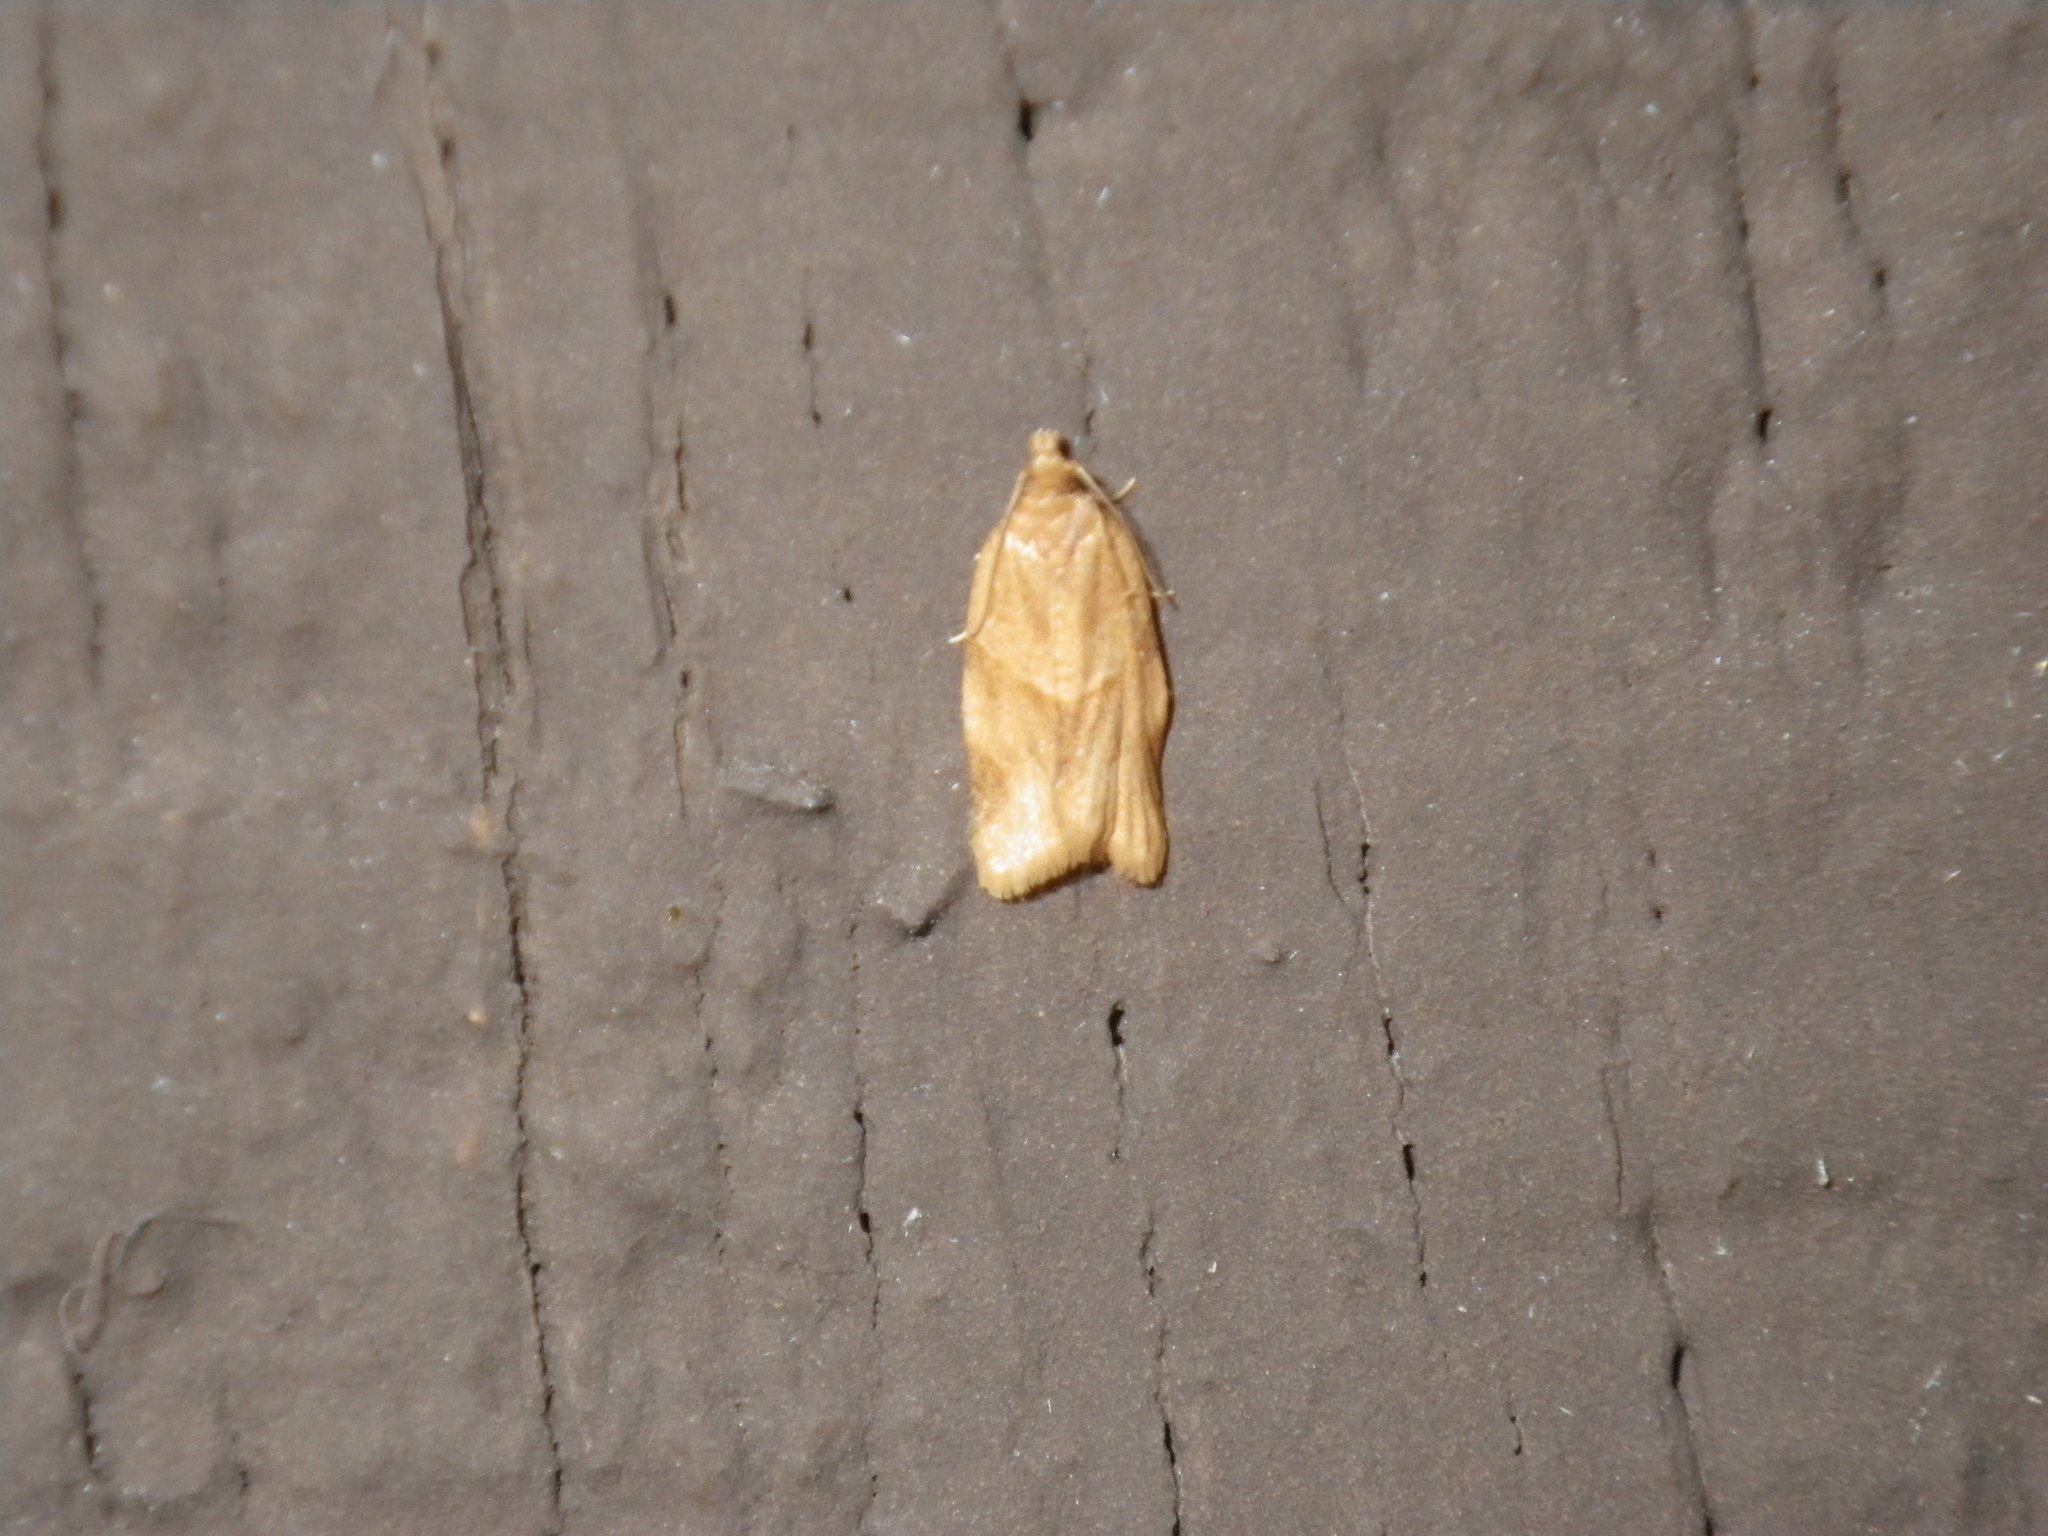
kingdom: Animalia
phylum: Arthropoda
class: Insecta
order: Lepidoptera
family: Tortricidae
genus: Clepsis
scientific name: Clepsis peritana
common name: Garden tortrix
